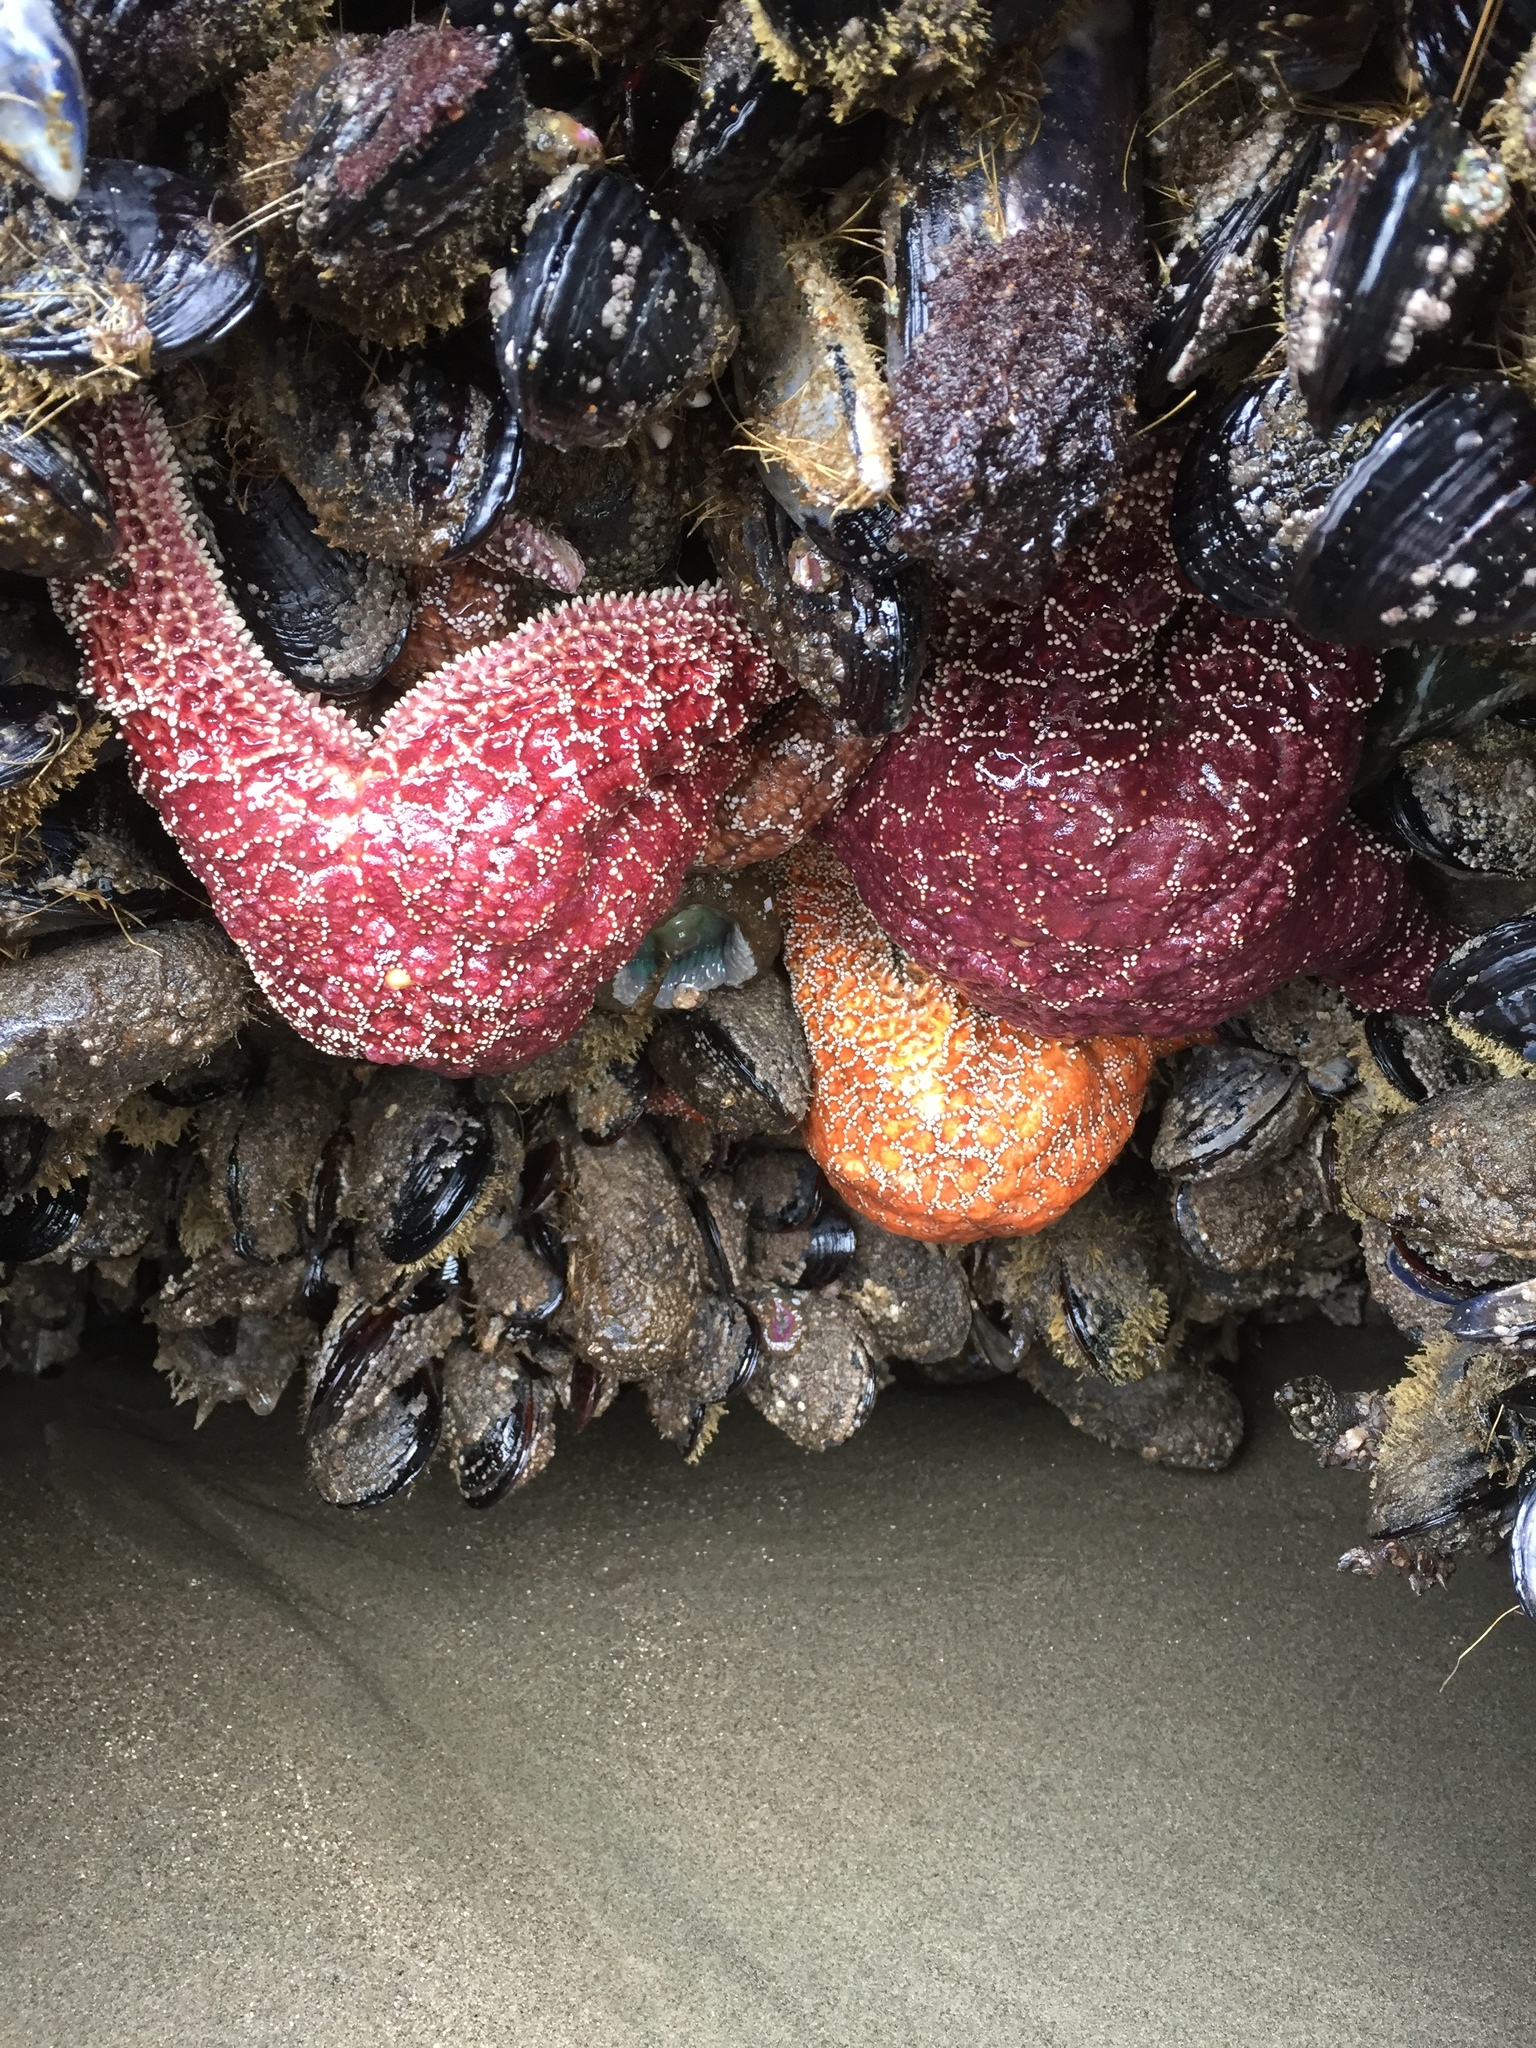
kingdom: Animalia
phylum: Echinodermata
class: Asteroidea
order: Forcipulatida
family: Asteriidae
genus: Pisaster
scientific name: Pisaster ochraceus
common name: Ochre stars
